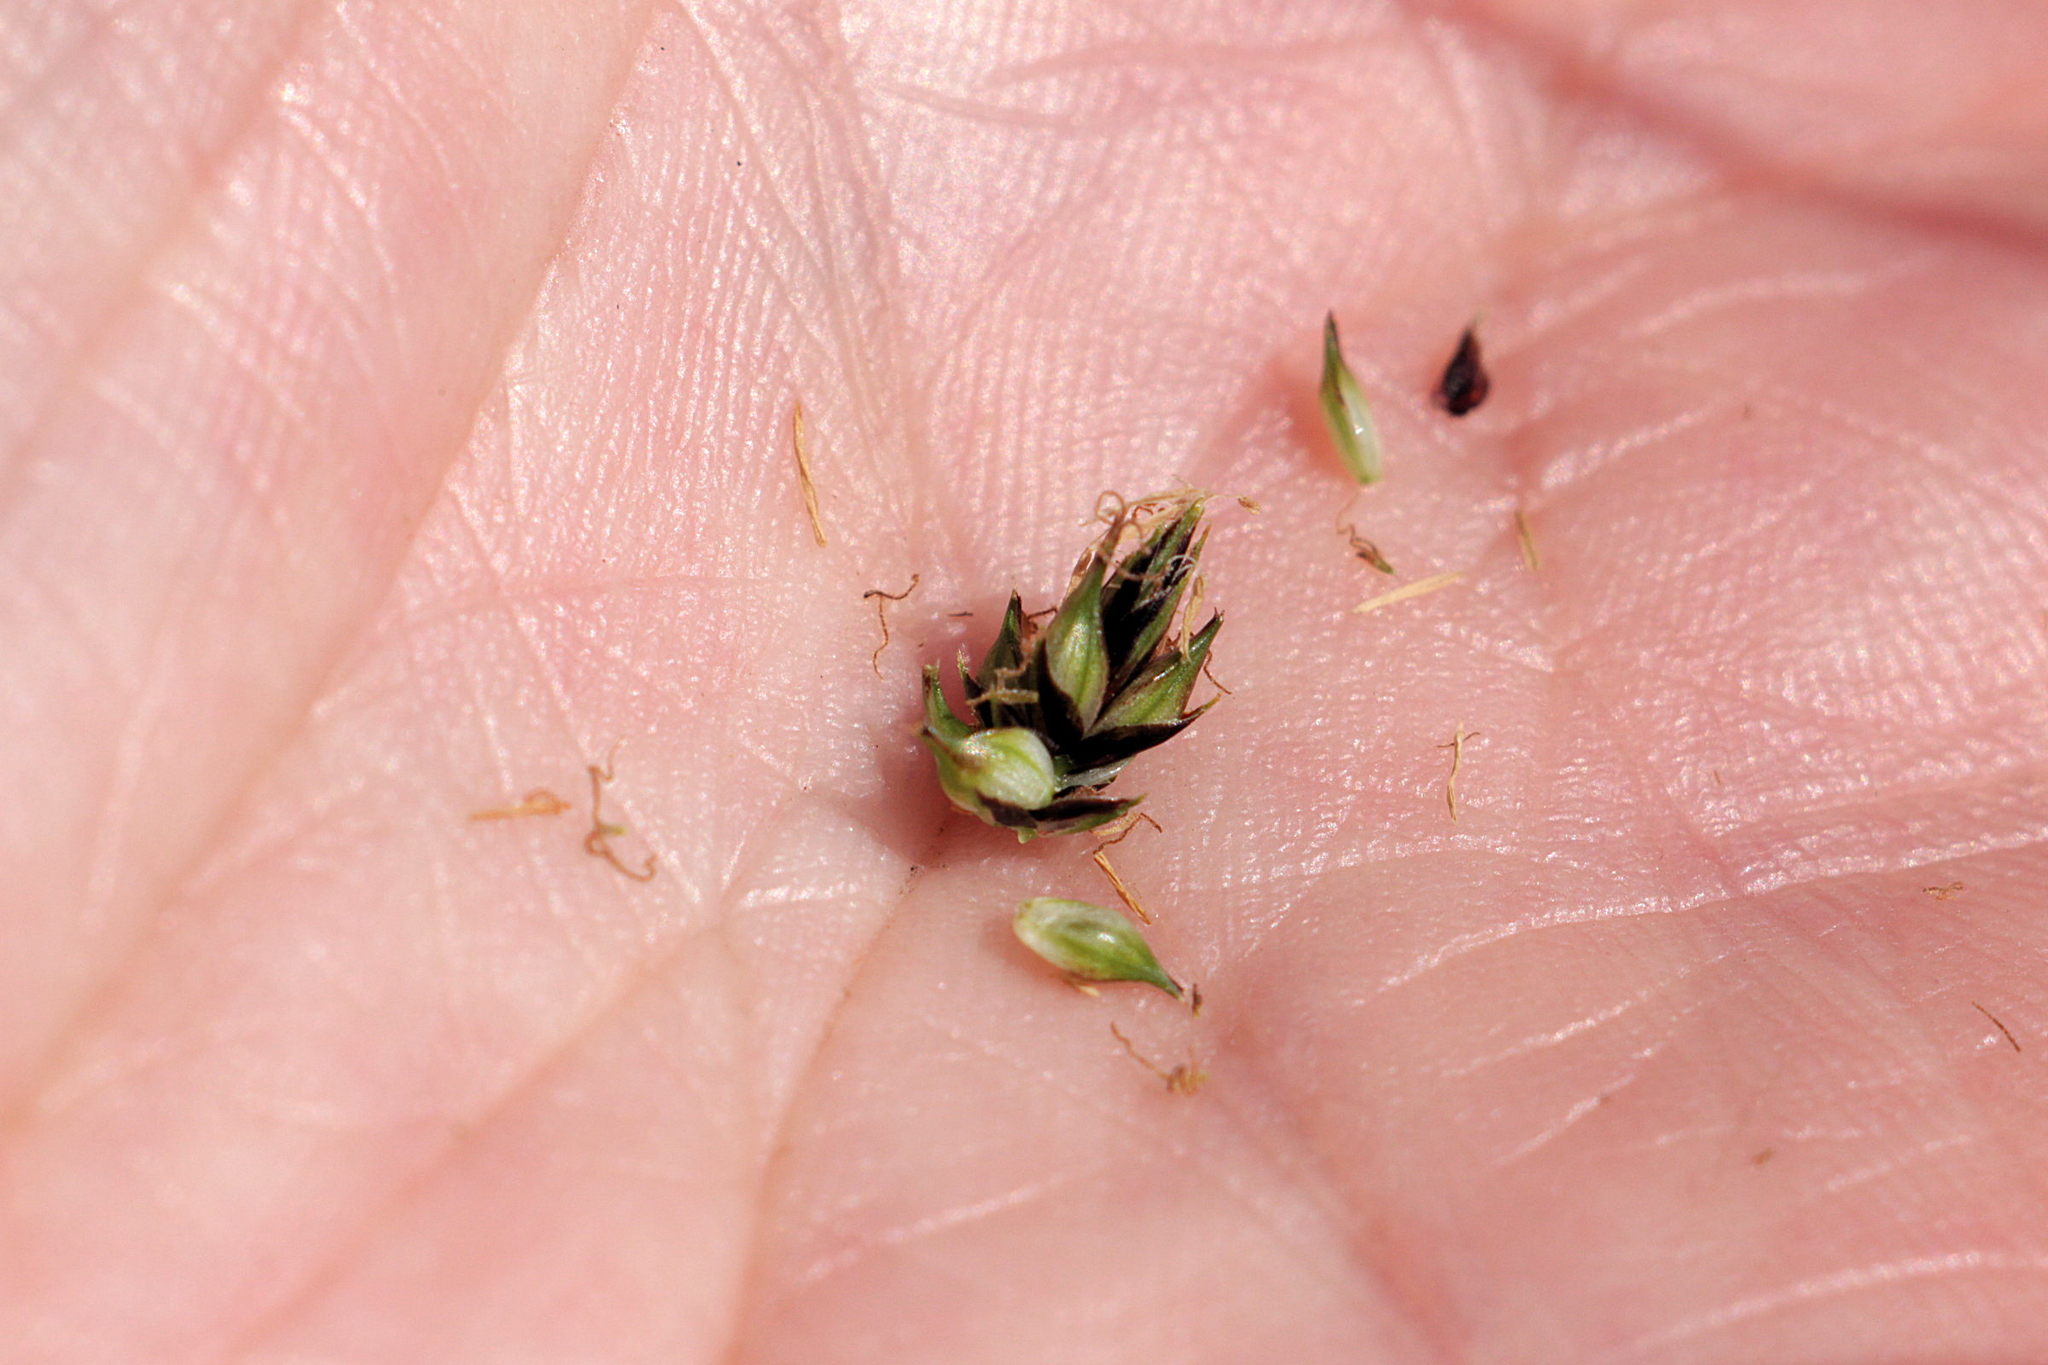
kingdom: Plantae
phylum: Tracheophyta
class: Liliopsida
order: Poales
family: Cyperaceae
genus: Carex
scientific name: Carex binervis
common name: Green-ribbed sedge
